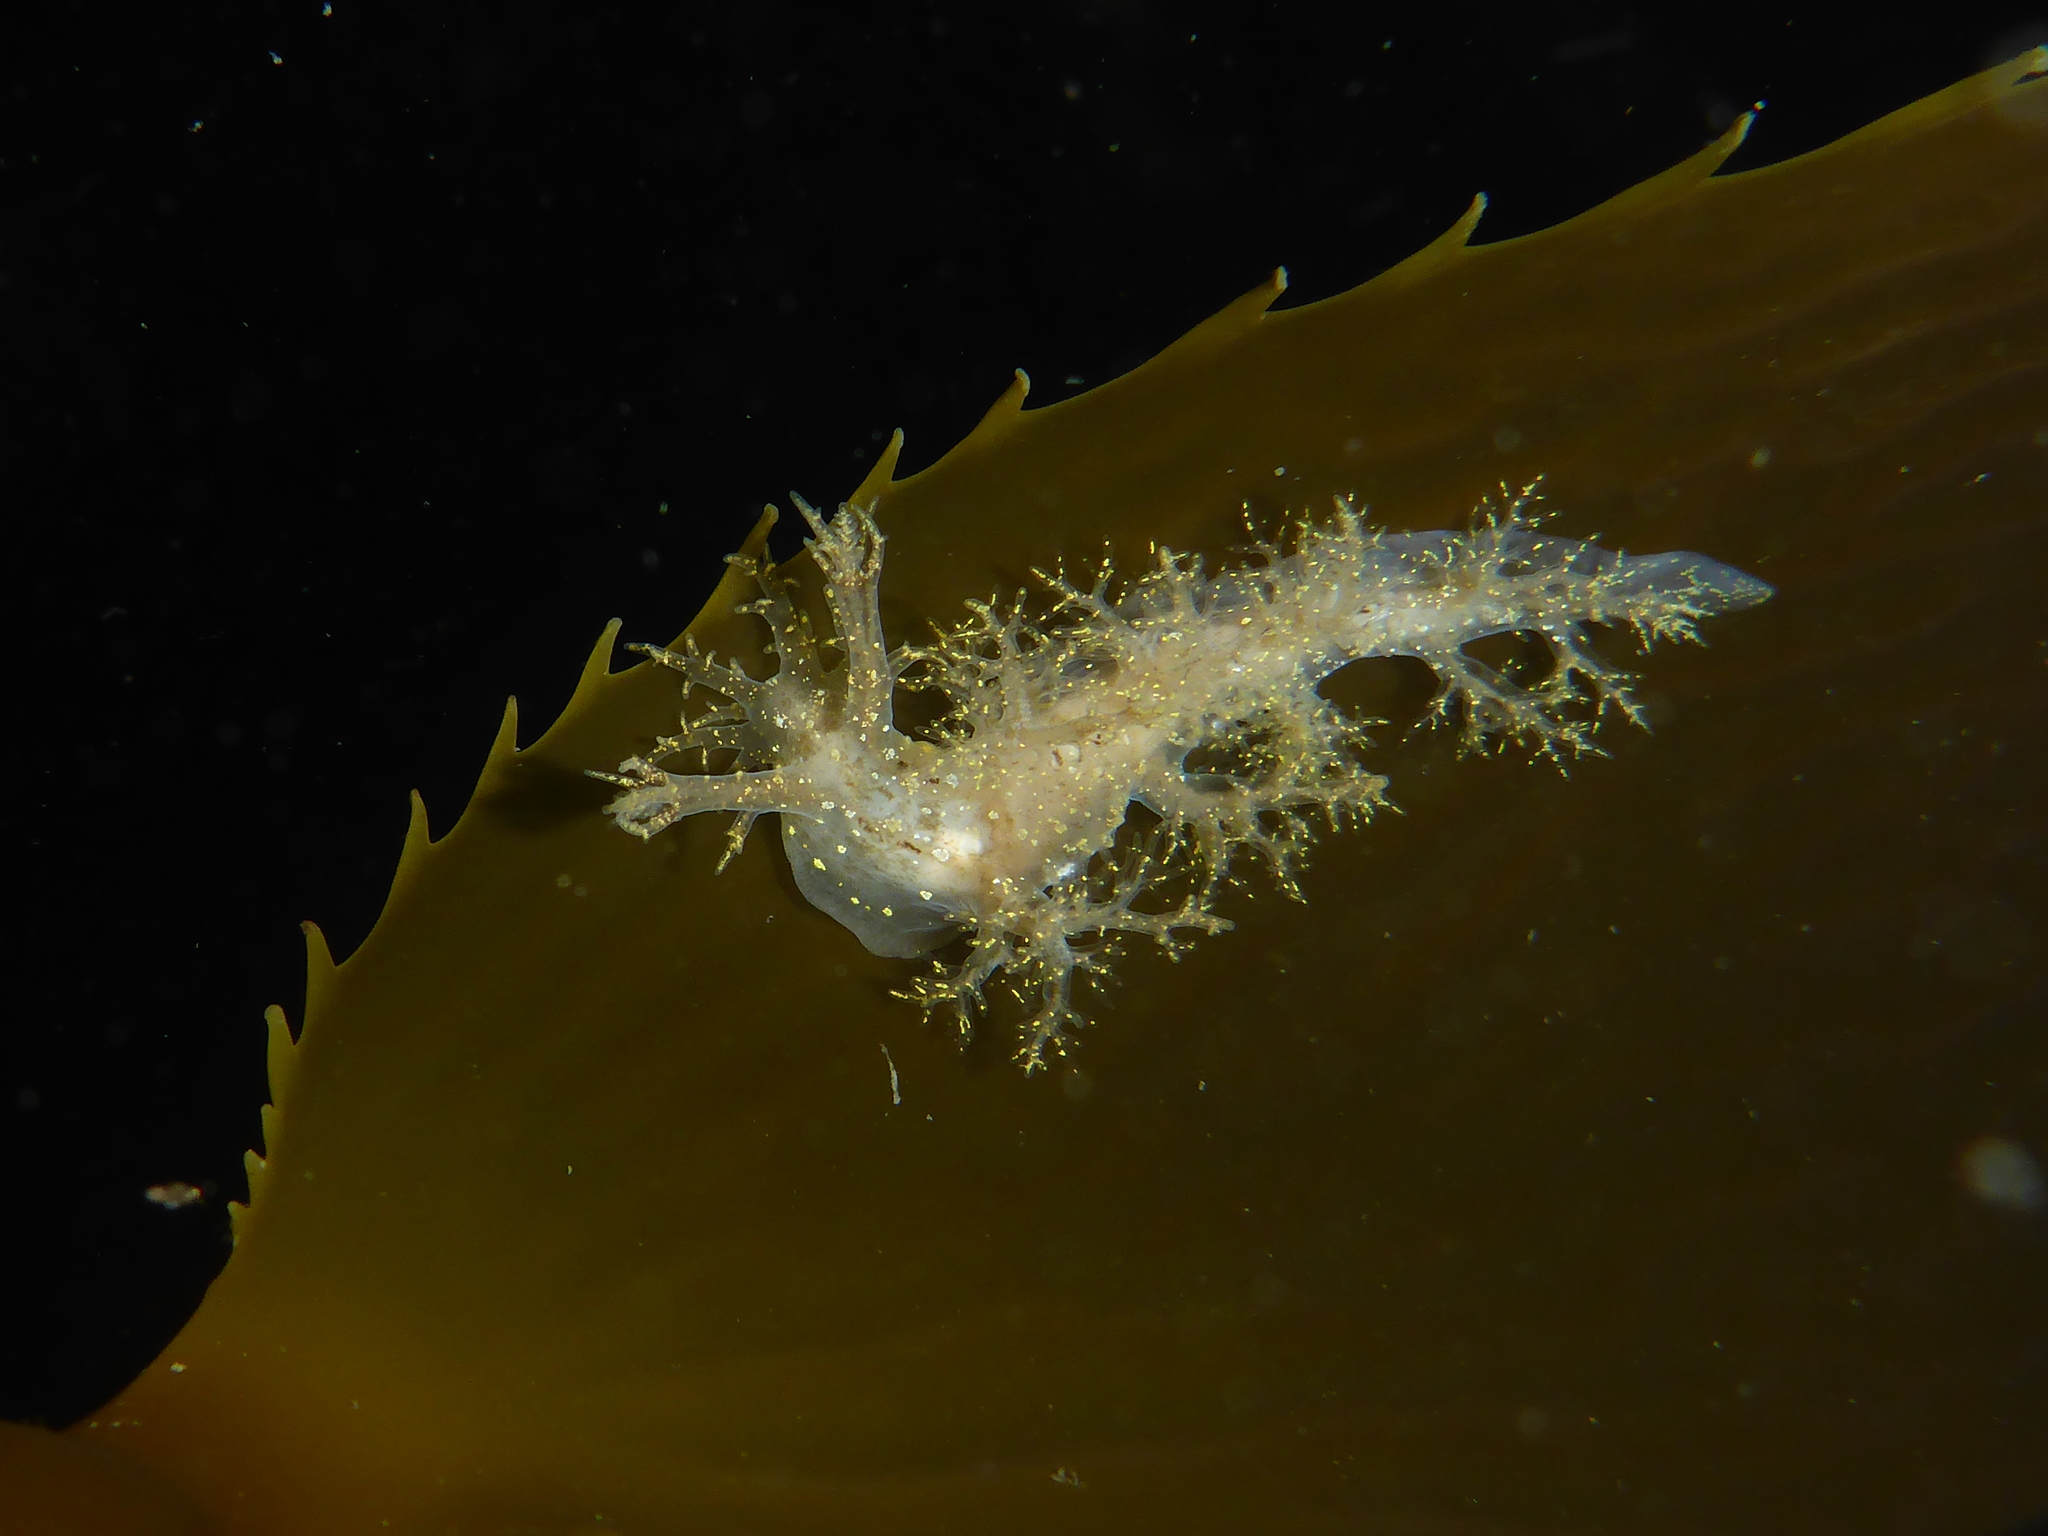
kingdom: Animalia
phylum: Mollusca
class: Gastropoda
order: Nudibranchia
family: Dendronotidae
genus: Dendronotus
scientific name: Dendronotus venustus
